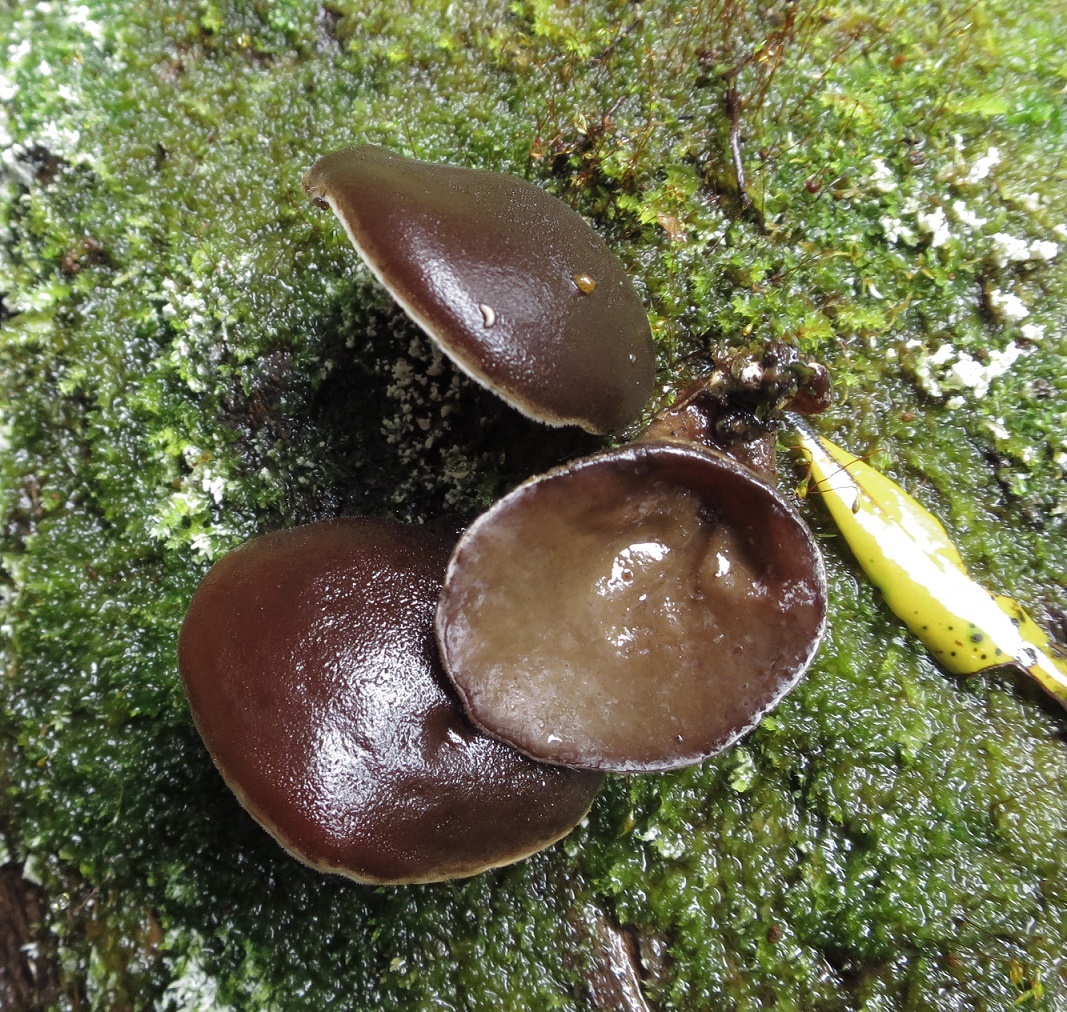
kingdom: Fungi
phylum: Basidiomycota
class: Agaricomycetes
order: Auriculariales
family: Auriculariaceae
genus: Auricularia
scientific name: Auricularia cornea
